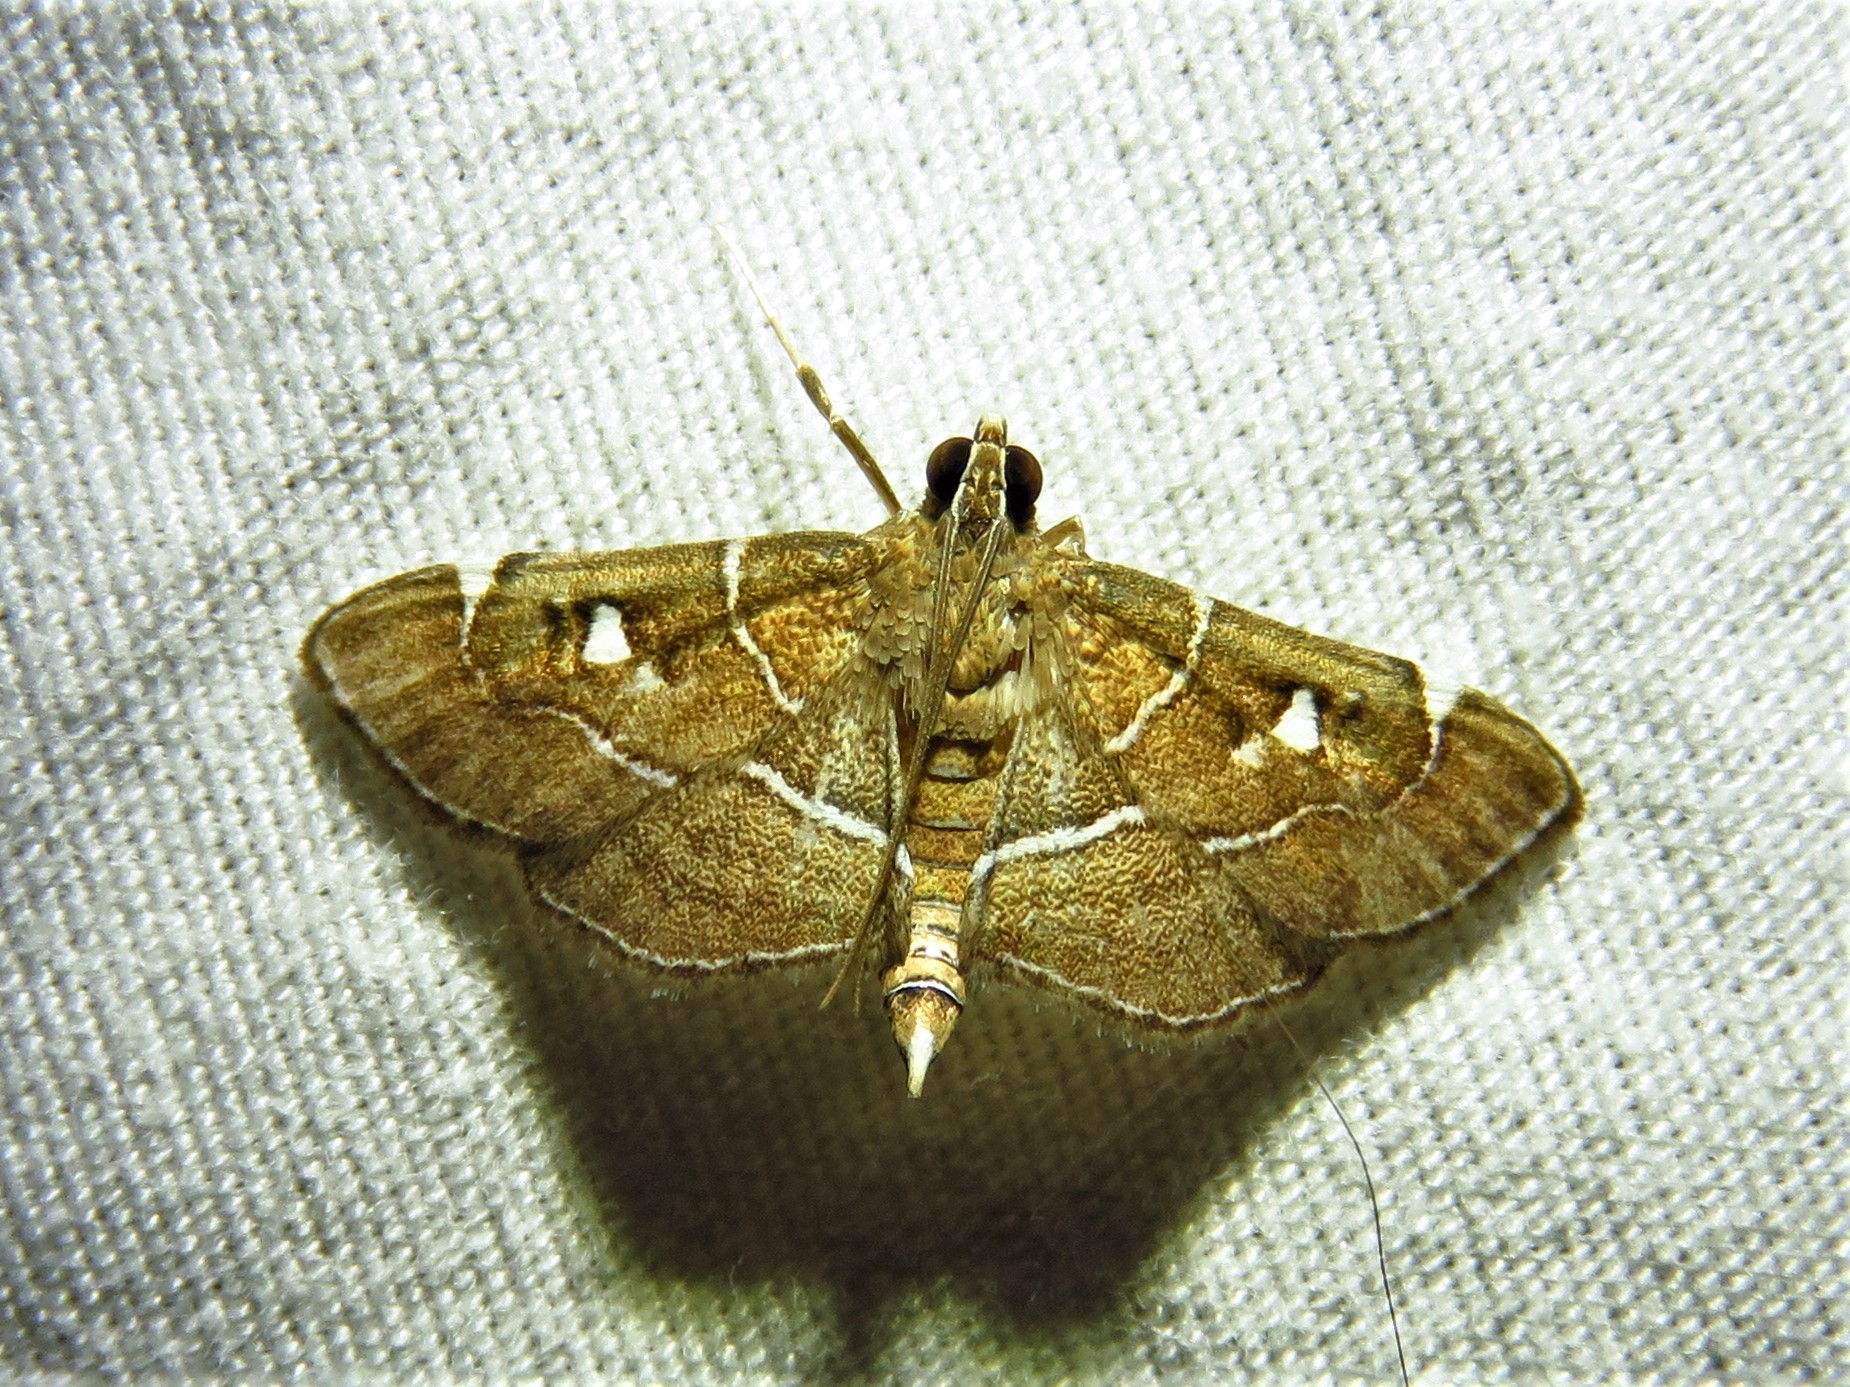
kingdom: Animalia
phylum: Arthropoda
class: Insecta
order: Lepidoptera
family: Crambidae
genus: Lamprosema
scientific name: Lamprosema victoriae
